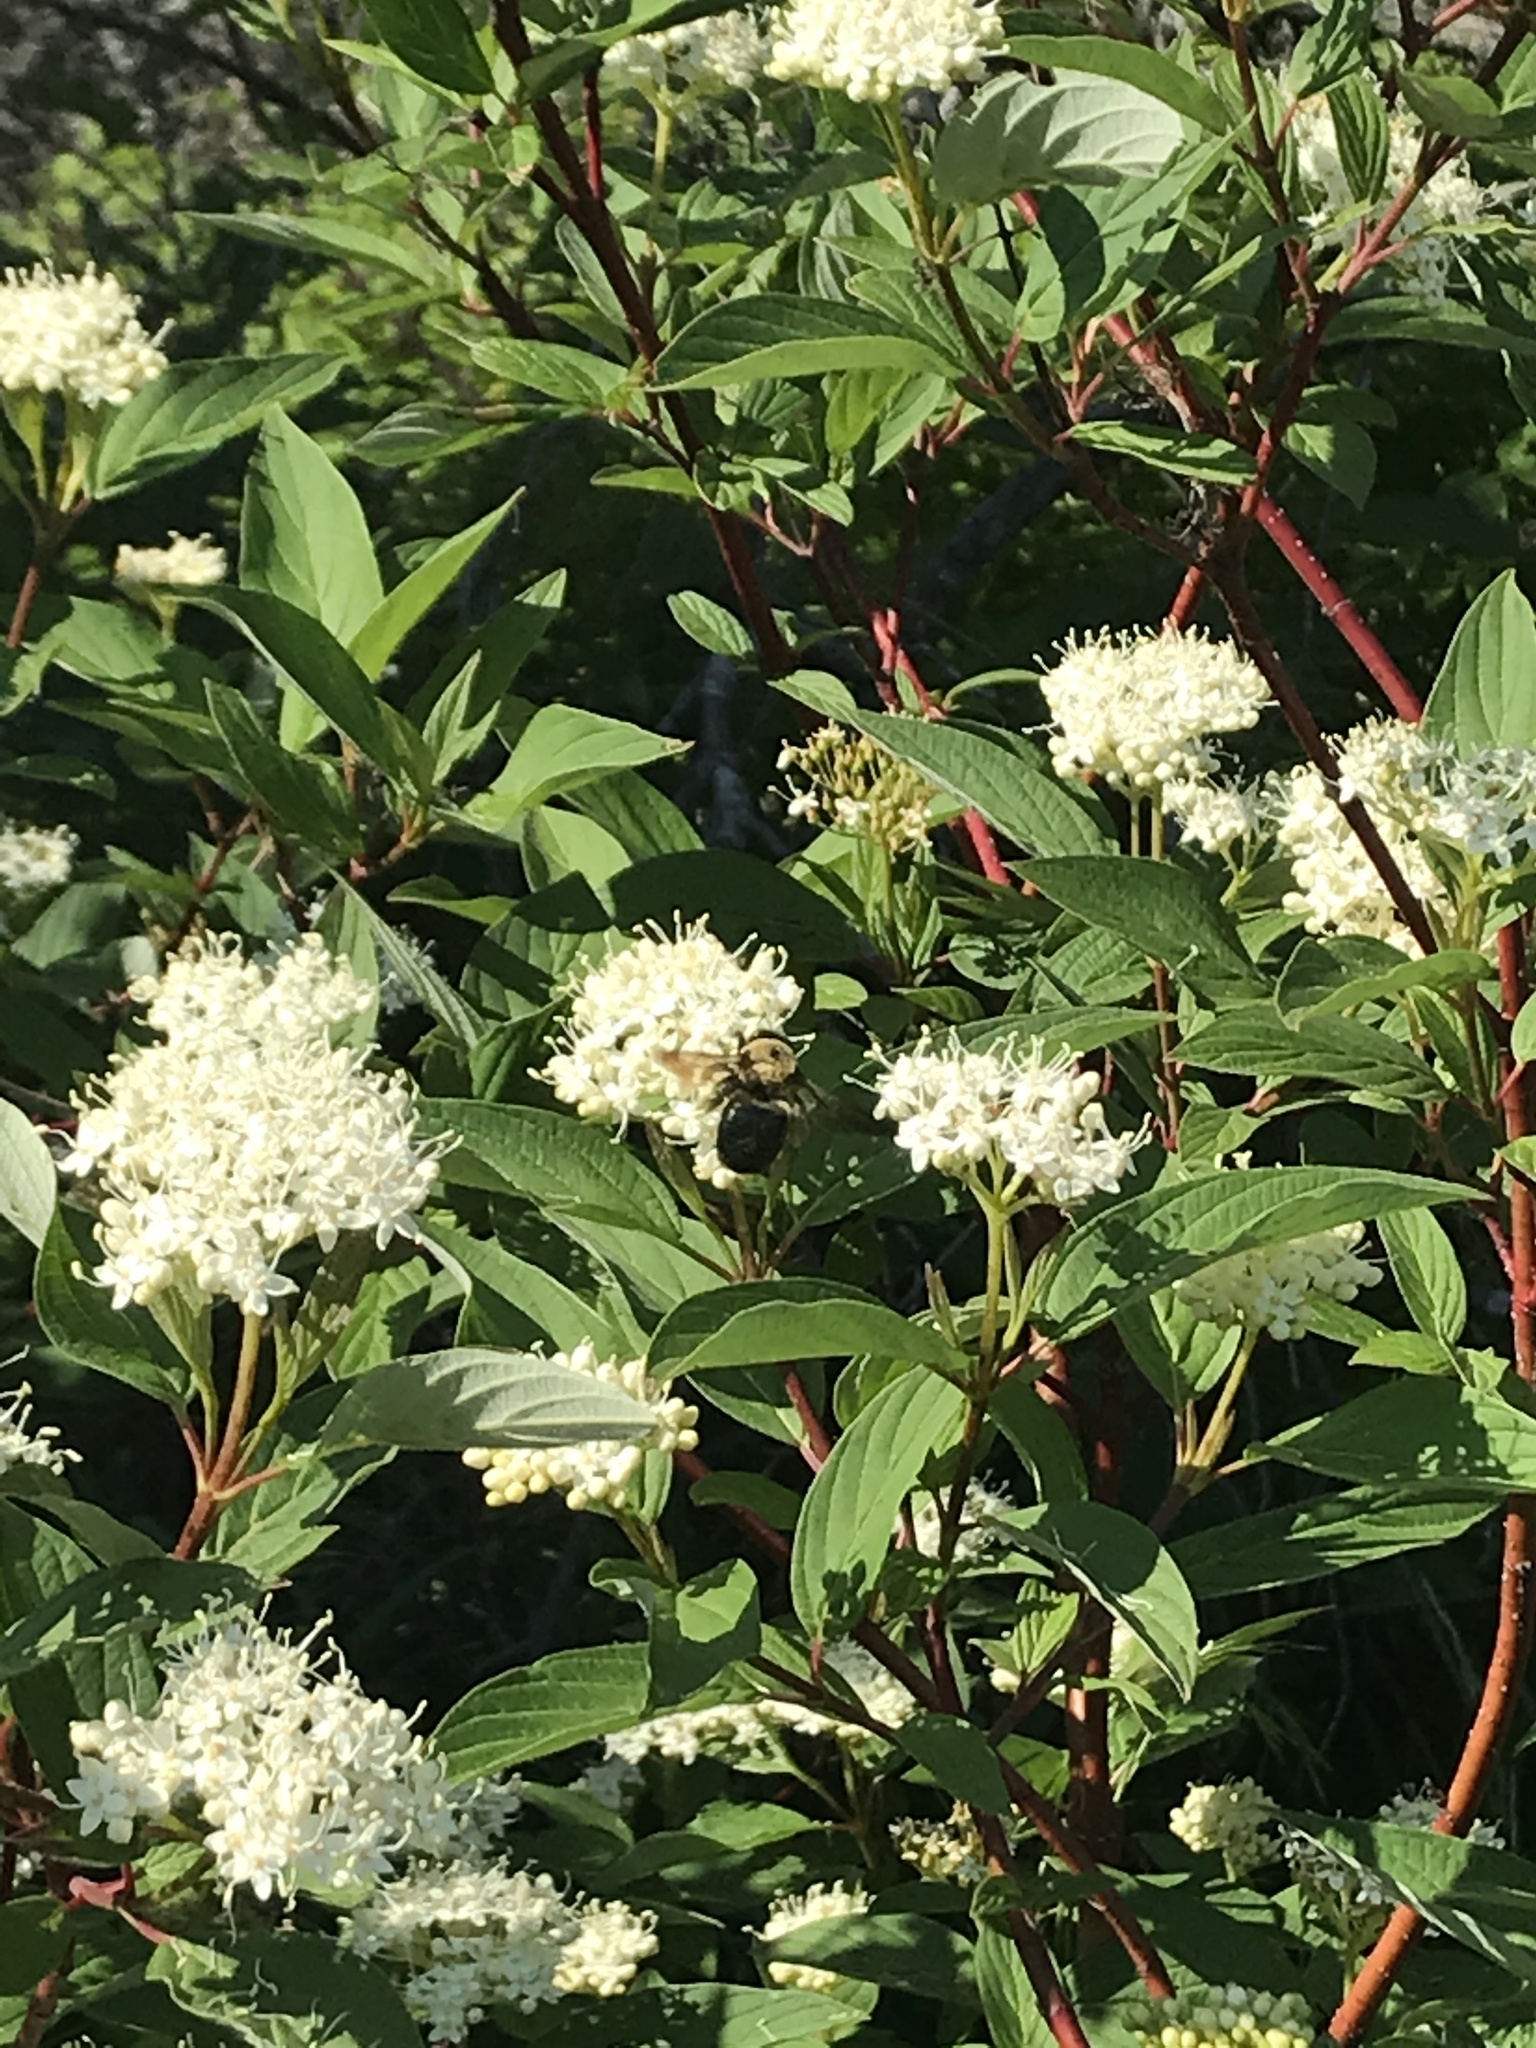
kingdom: Animalia
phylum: Arthropoda
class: Insecta
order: Hymenoptera
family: Apidae
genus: Xylocopa
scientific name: Xylocopa virginica
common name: Carpenter bee
